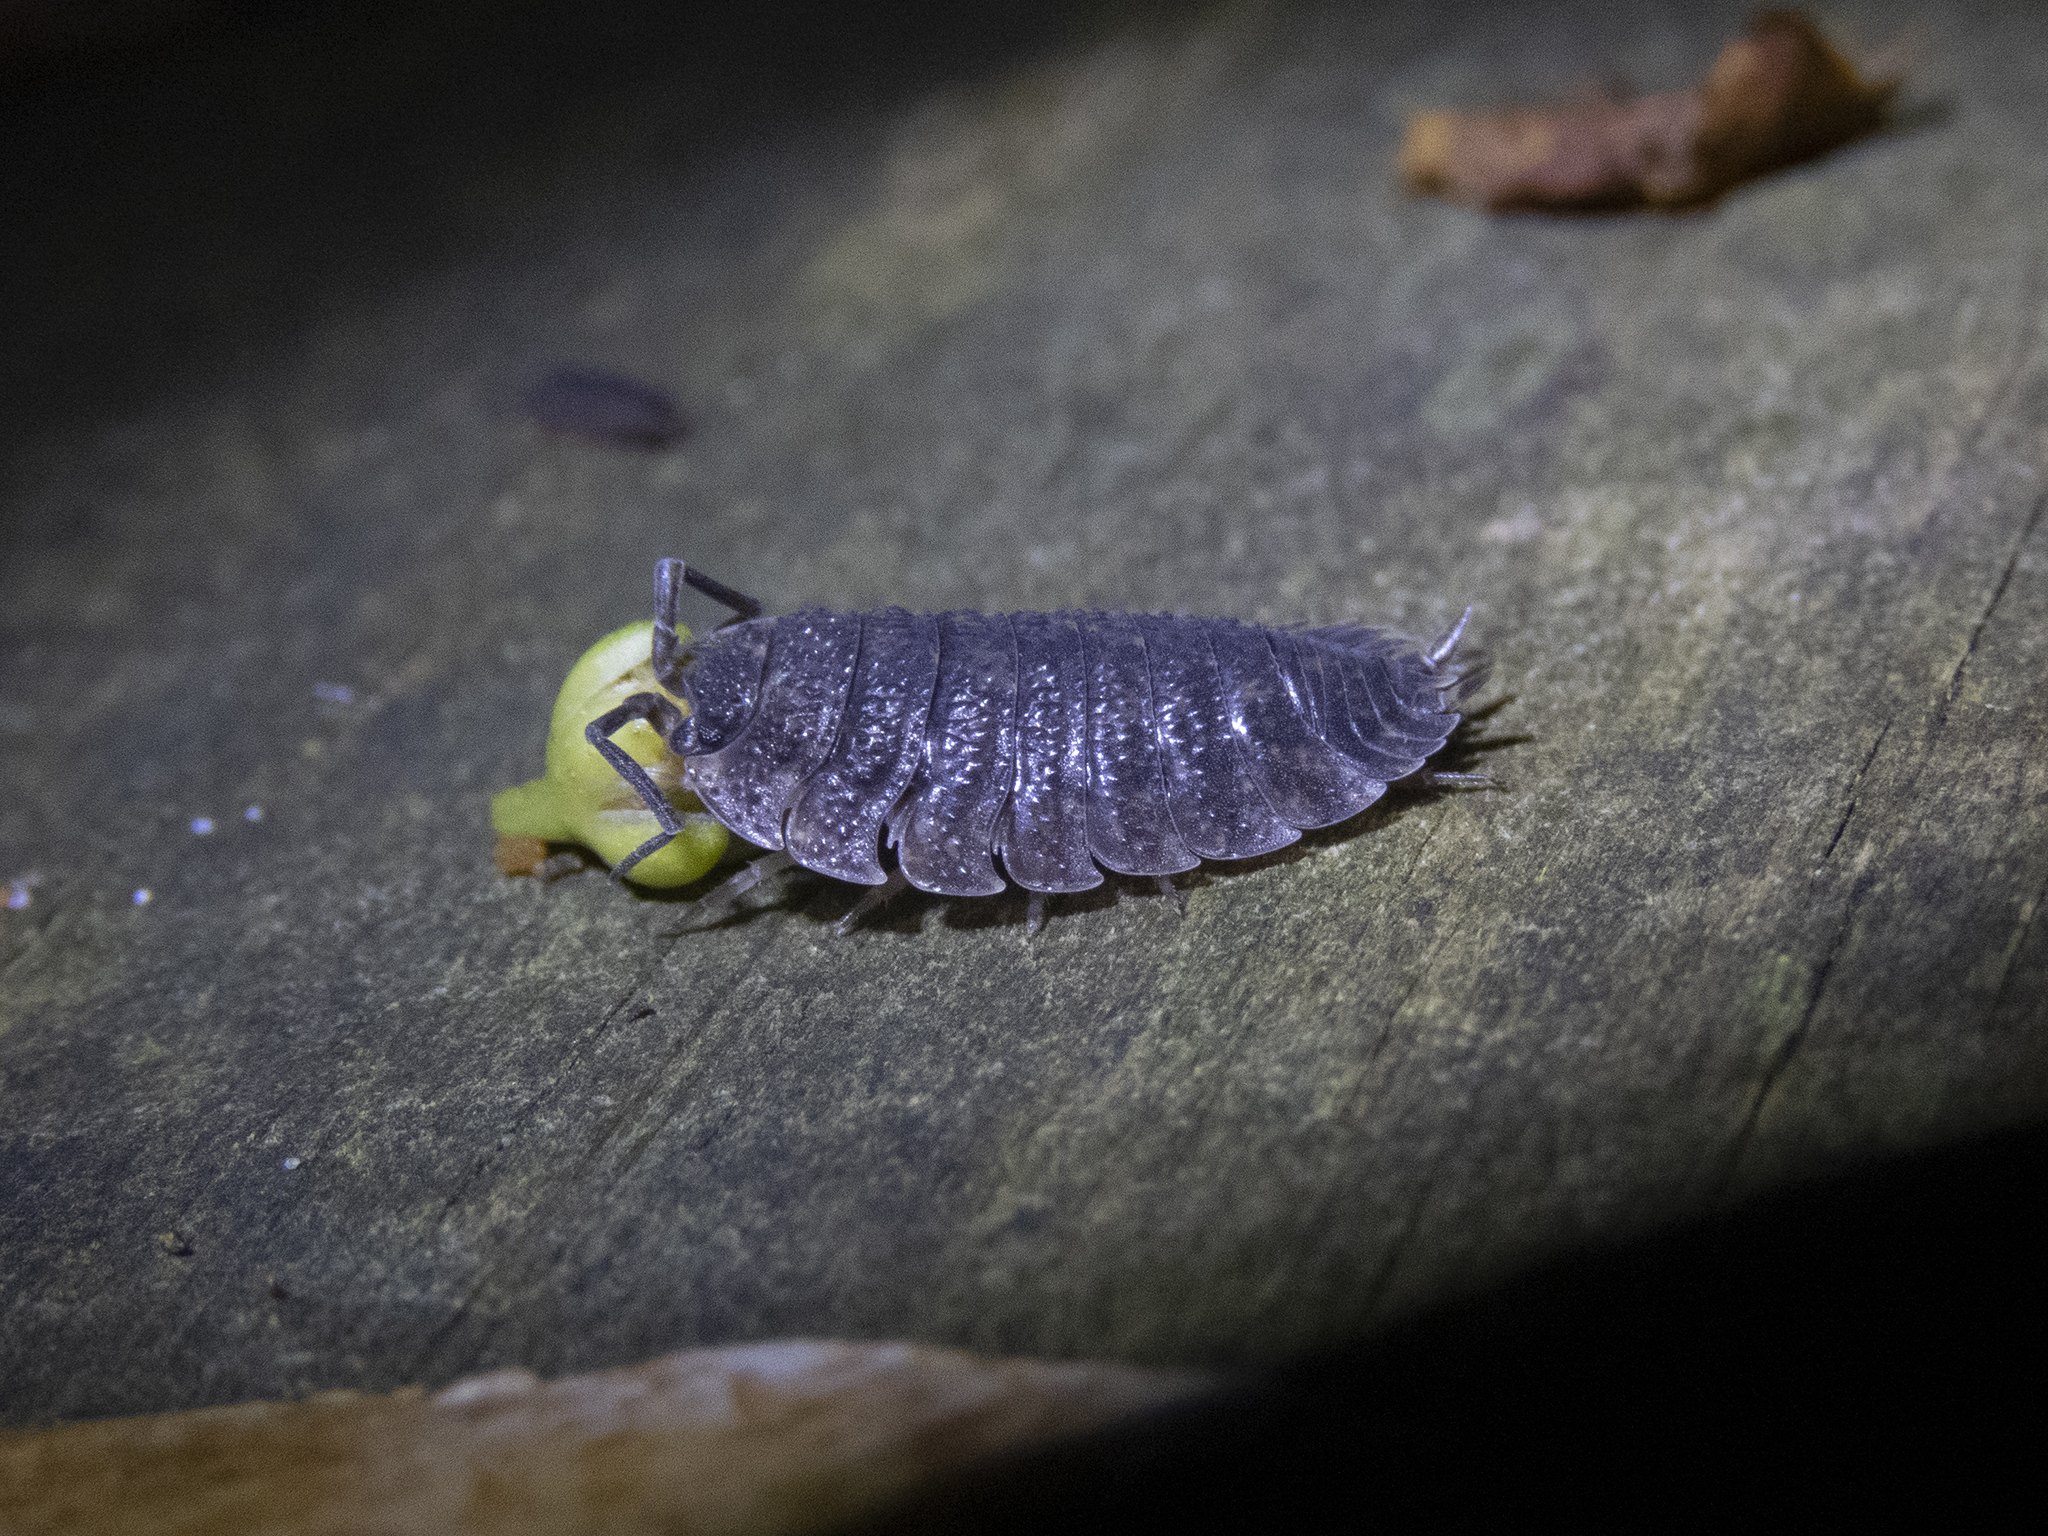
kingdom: Animalia
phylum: Arthropoda
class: Malacostraca
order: Isopoda
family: Porcellionidae
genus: Porcellio
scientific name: Porcellio scaber
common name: Common rough woodlouse
